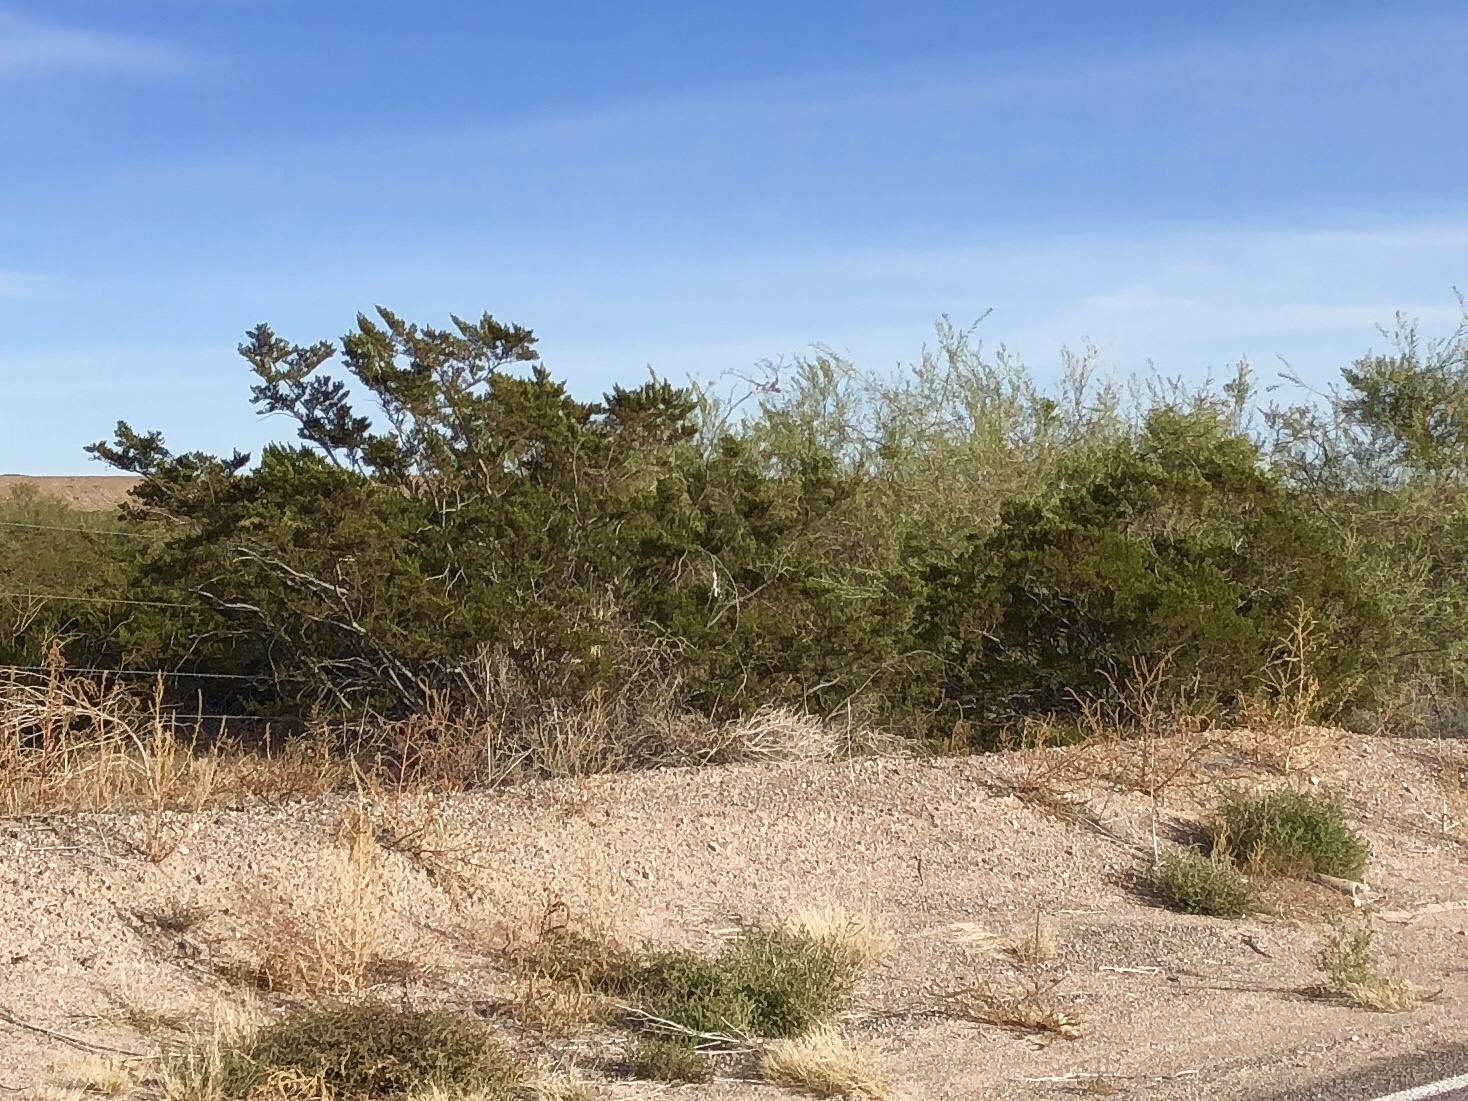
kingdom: Plantae
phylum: Tracheophyta
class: Magnoliopsida
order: Zygophyllales
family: Zygophyllaceae
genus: Larrea
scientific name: Larrea tridentata
